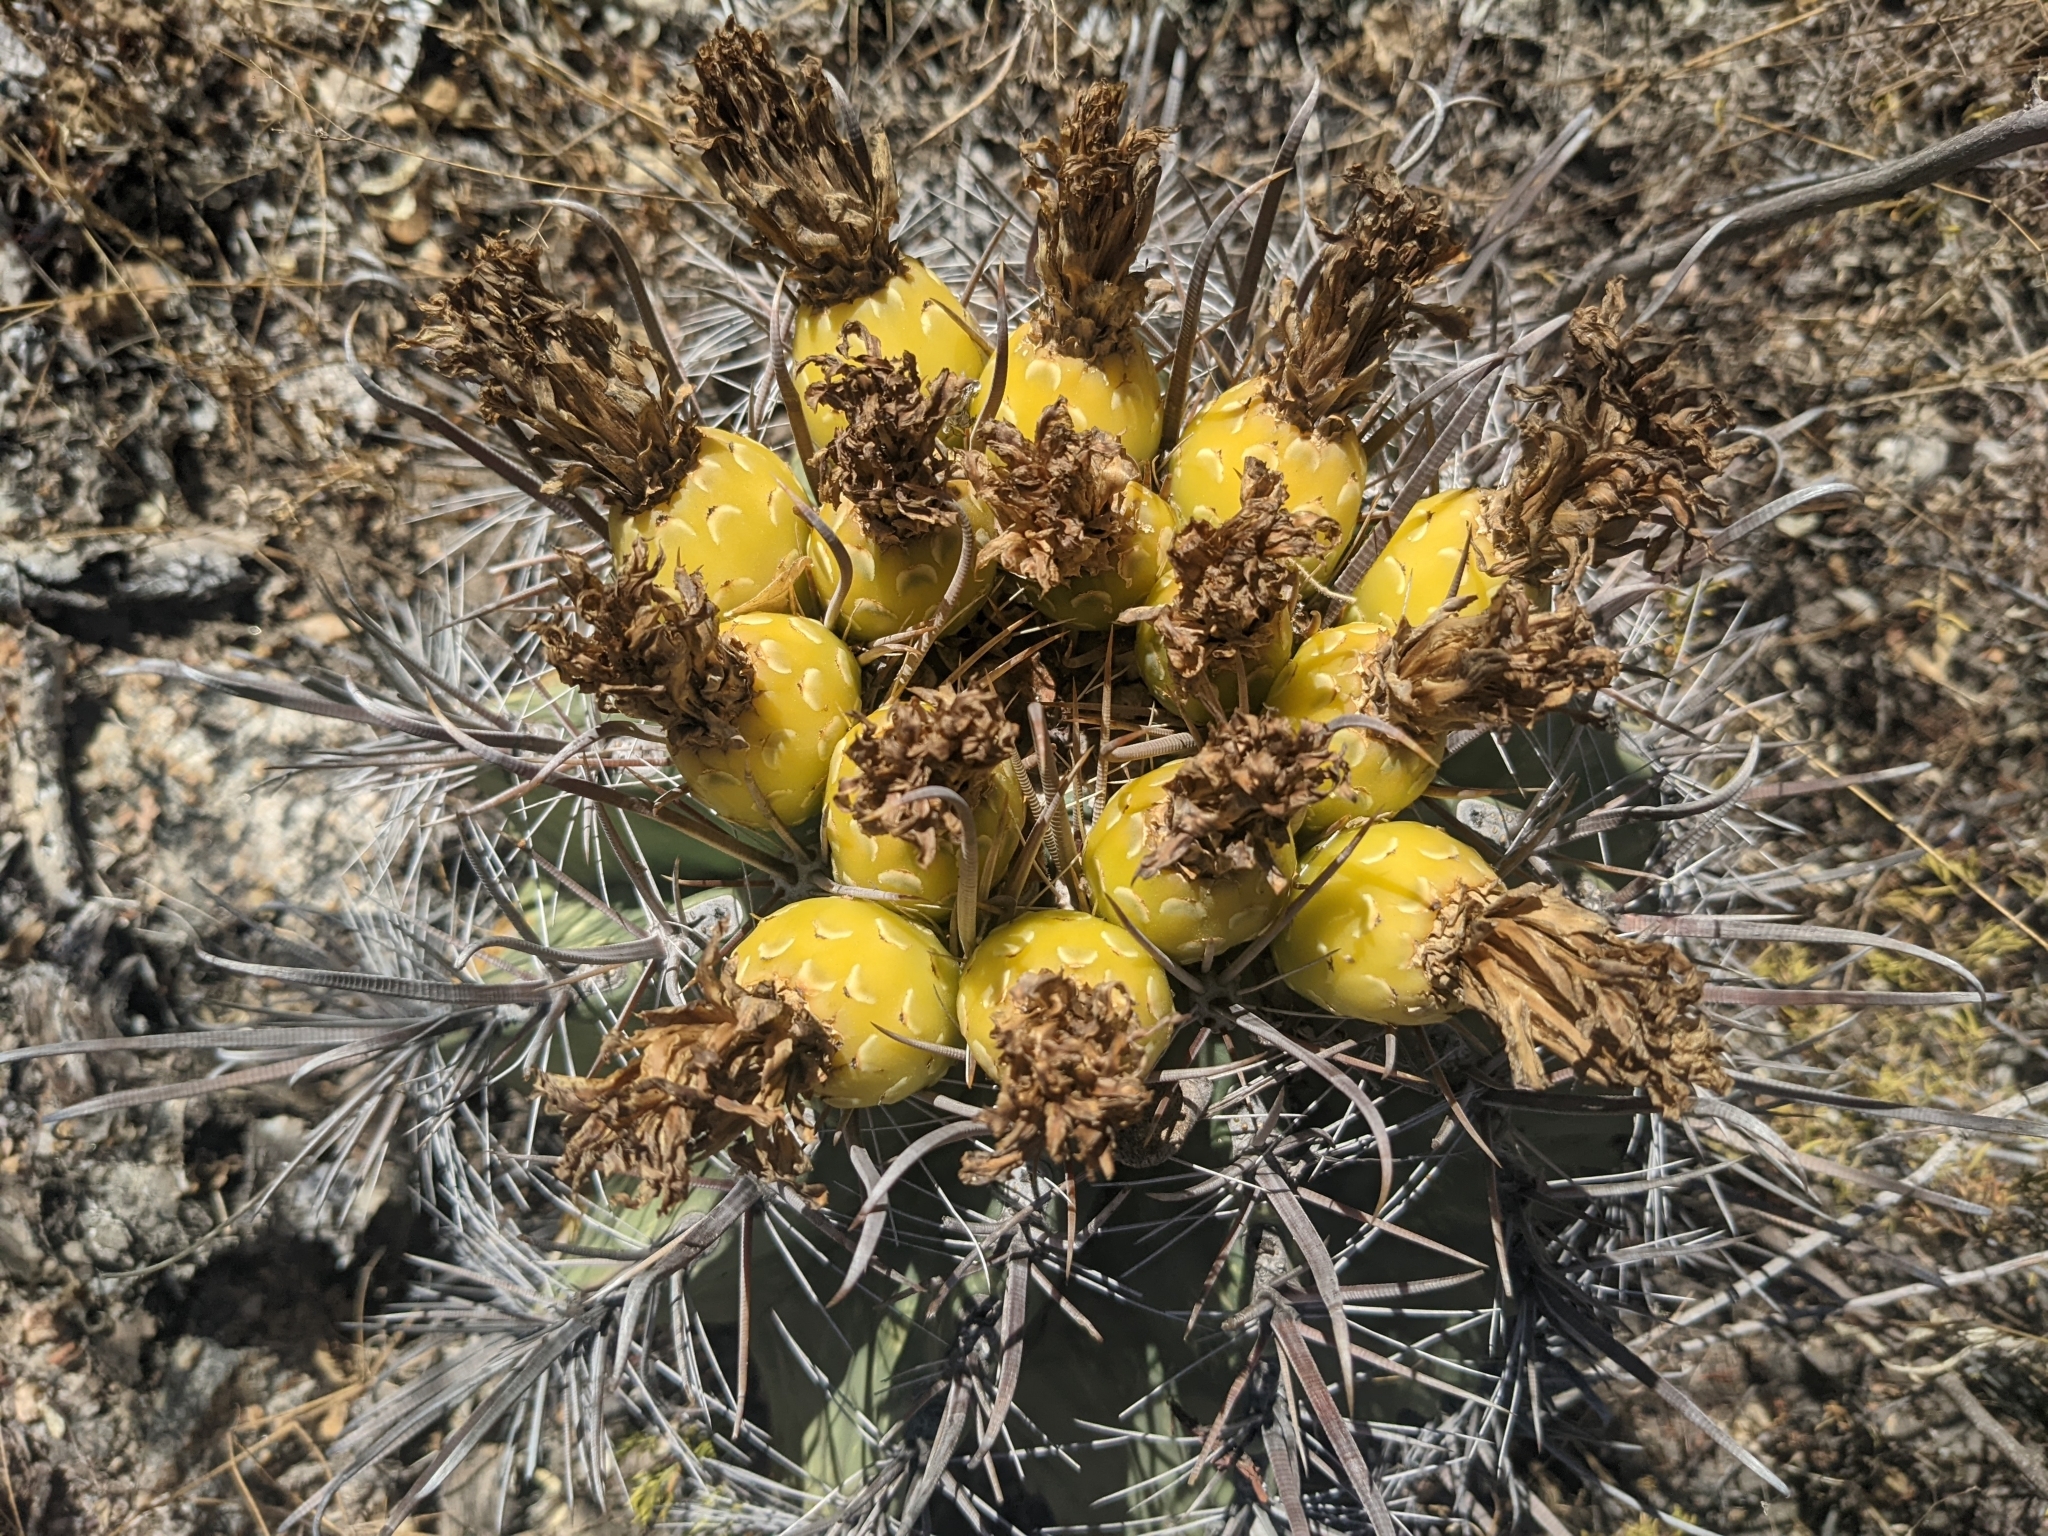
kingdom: Plantae
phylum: Tracheophyta
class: Magnoliopsida
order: Caryophyllales
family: Cactaceae
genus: Ferocactus
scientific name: Ferocactus townsendianus
